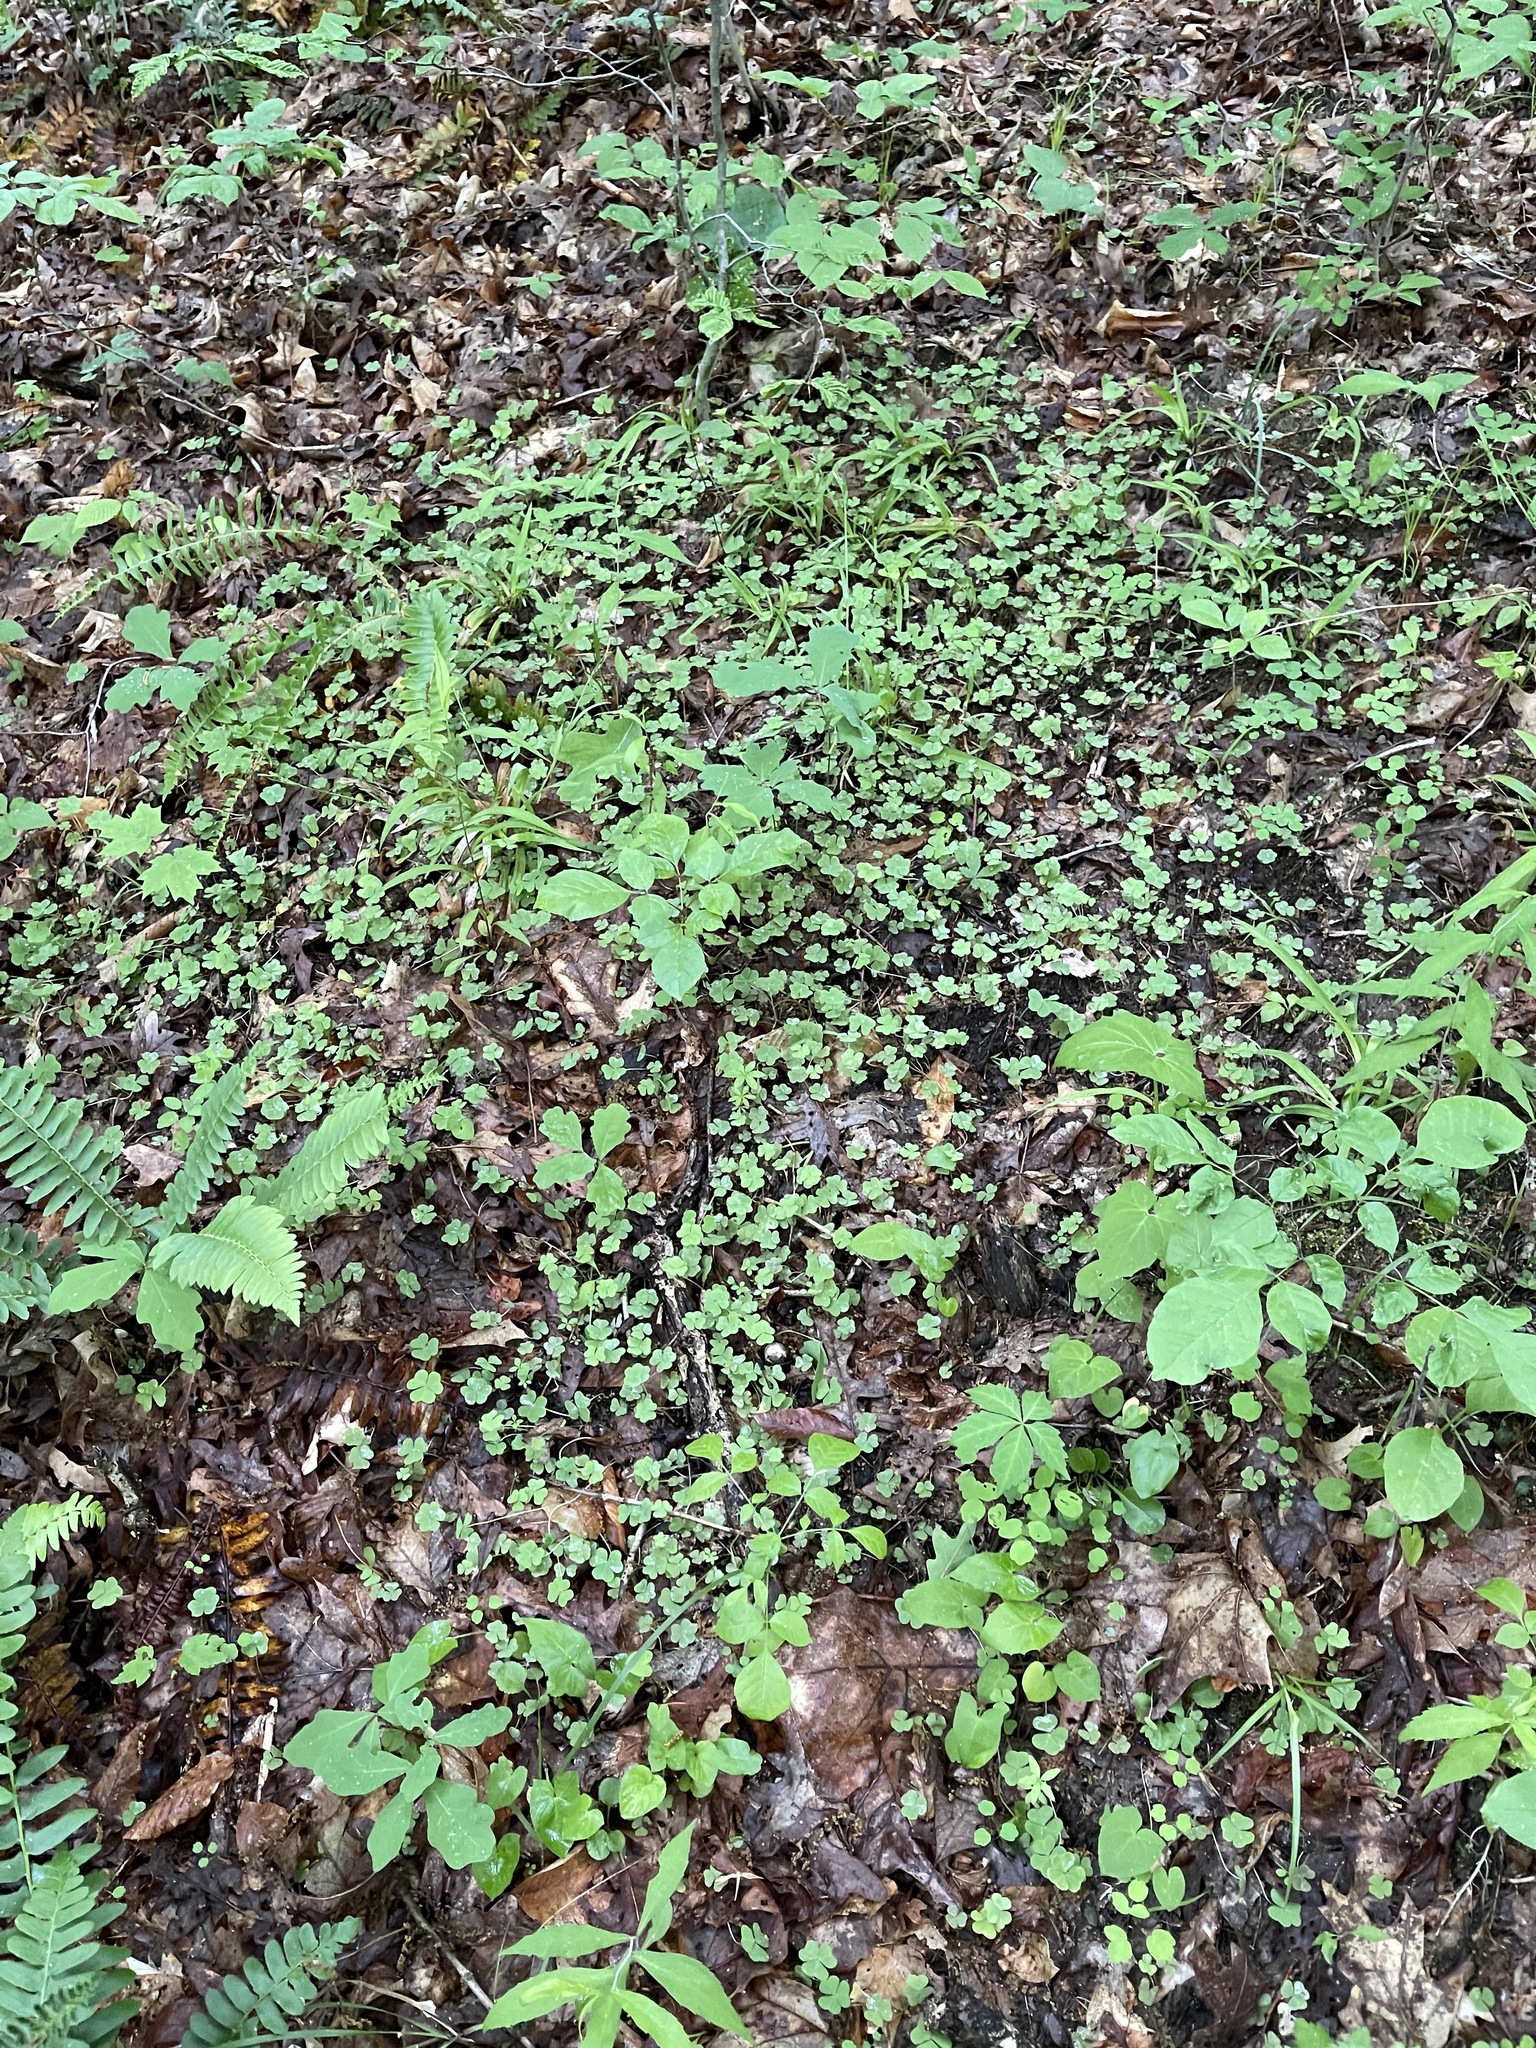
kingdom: Plantae
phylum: Tracheophyta
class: Magnoliopsida
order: Oxalidales
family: Oxalidaceae
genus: Oxalis
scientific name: Oxalis violacea
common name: Violet wood-sorrel
